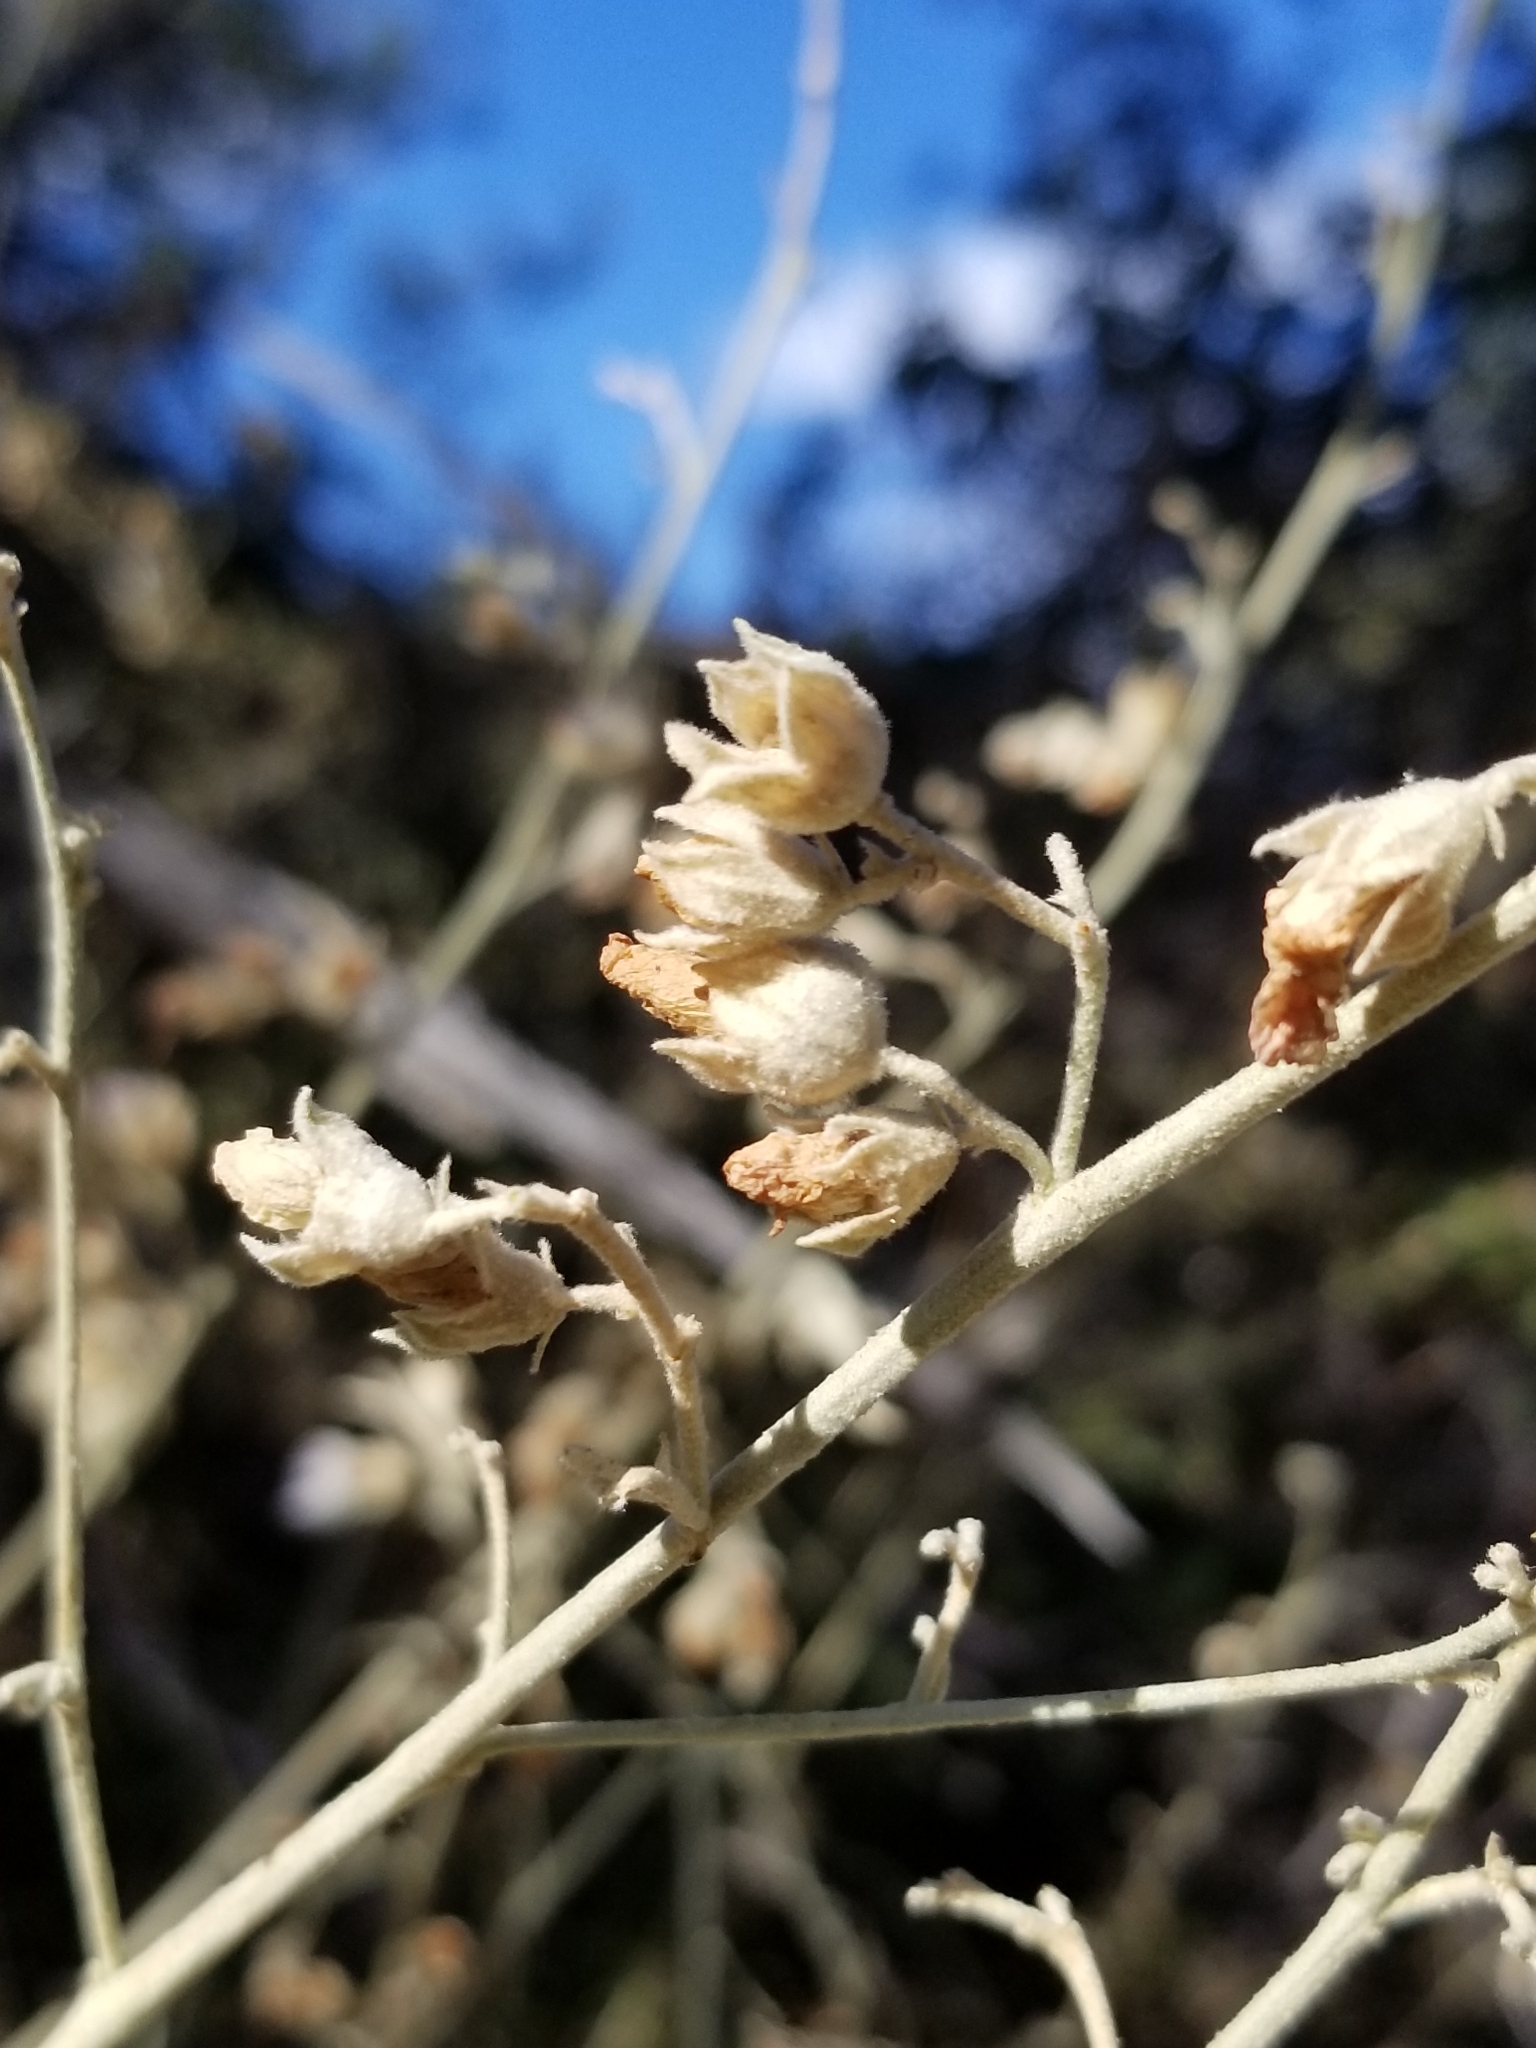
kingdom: Plantae
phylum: Tracheophyta
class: Magnoliopsida
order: Malvales
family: Malvaceae
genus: Malacothamnus
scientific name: Malacothamnus fasciculatus
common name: Sant cruz island bush-mallow
